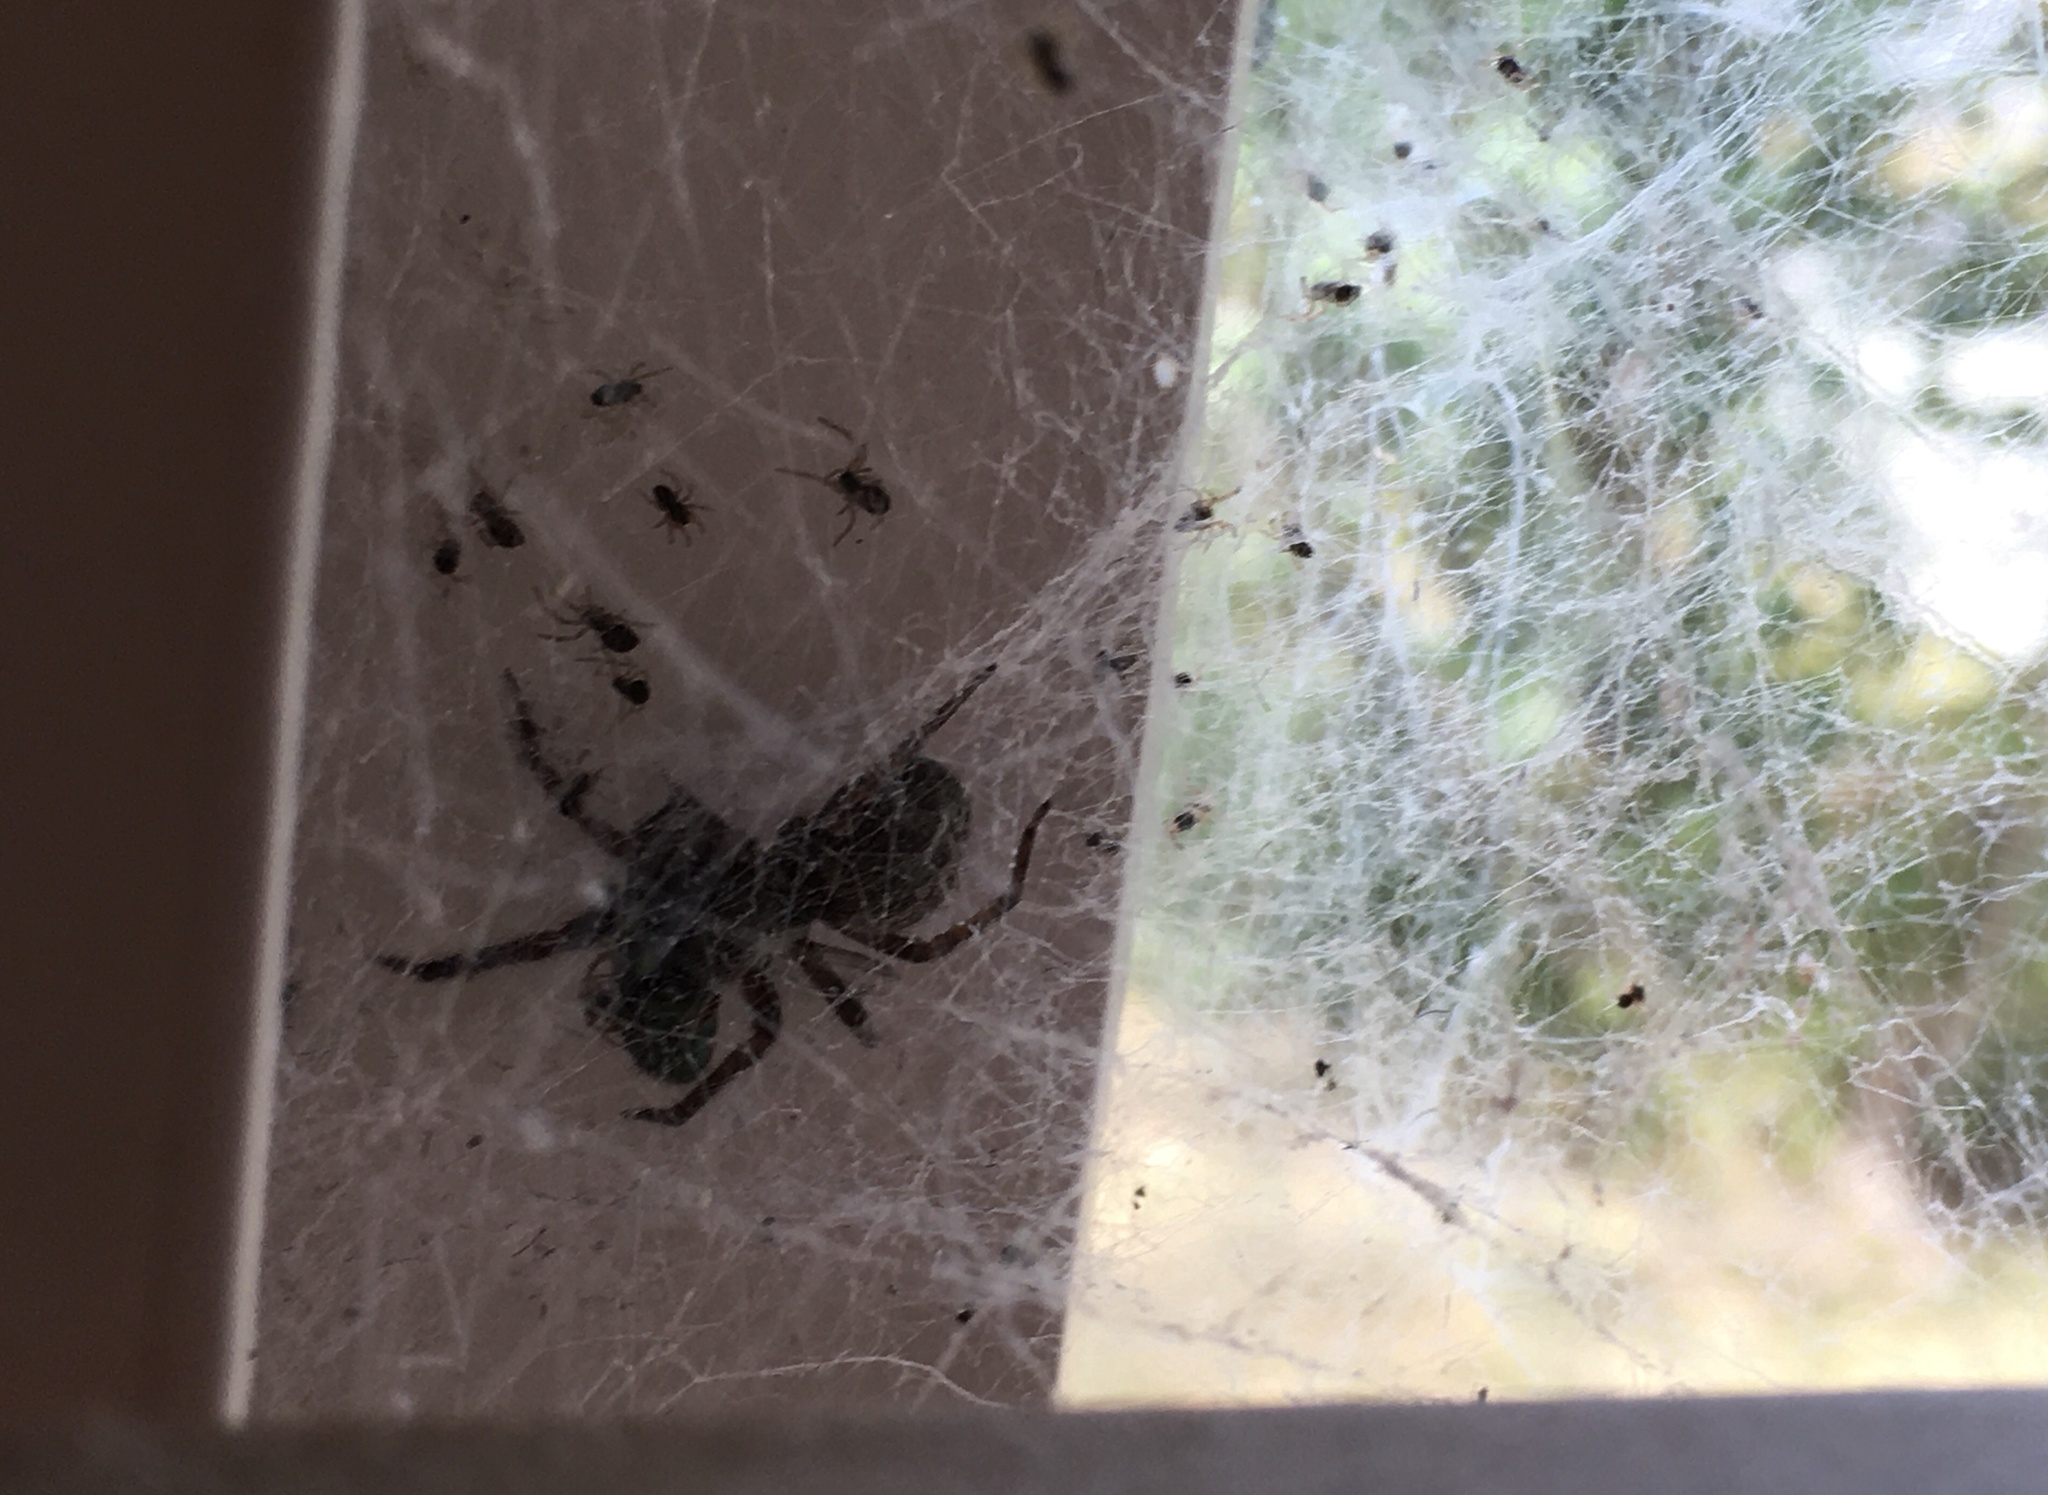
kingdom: Animalia
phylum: Arthropoda
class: Arachnida
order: Araneae
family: Desidae
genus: Badumna
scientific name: Badumna longinqua
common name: Gray house spider
